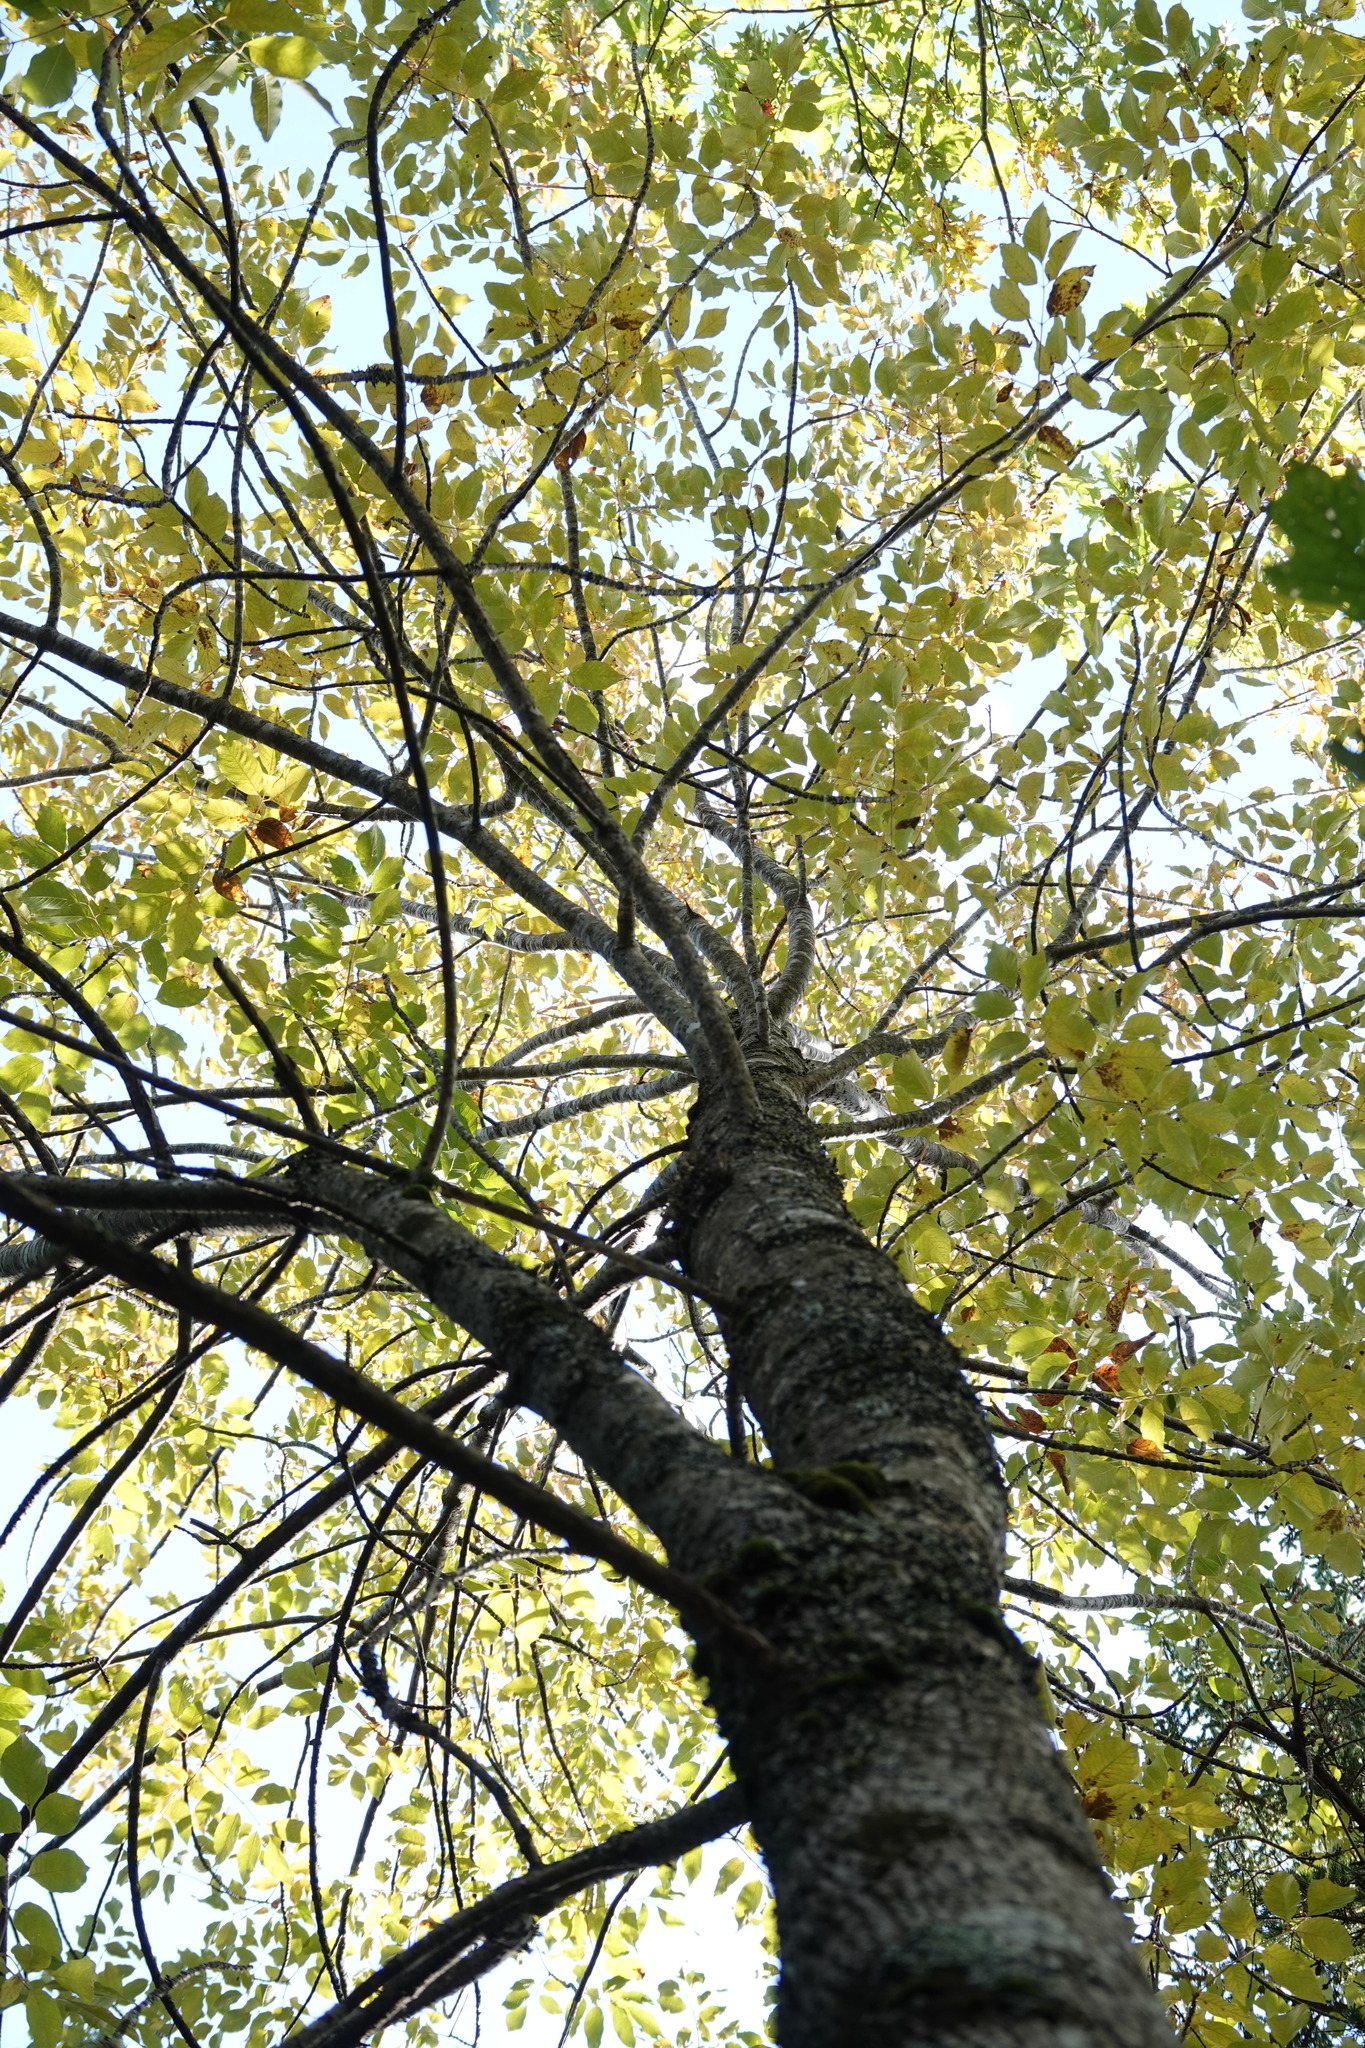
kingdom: Plantae
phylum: Tracheophyta
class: Magnoliopsida
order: Fagales
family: Betulaceae
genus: Betula
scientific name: Betula alleghaniensis
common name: Yellow birch
